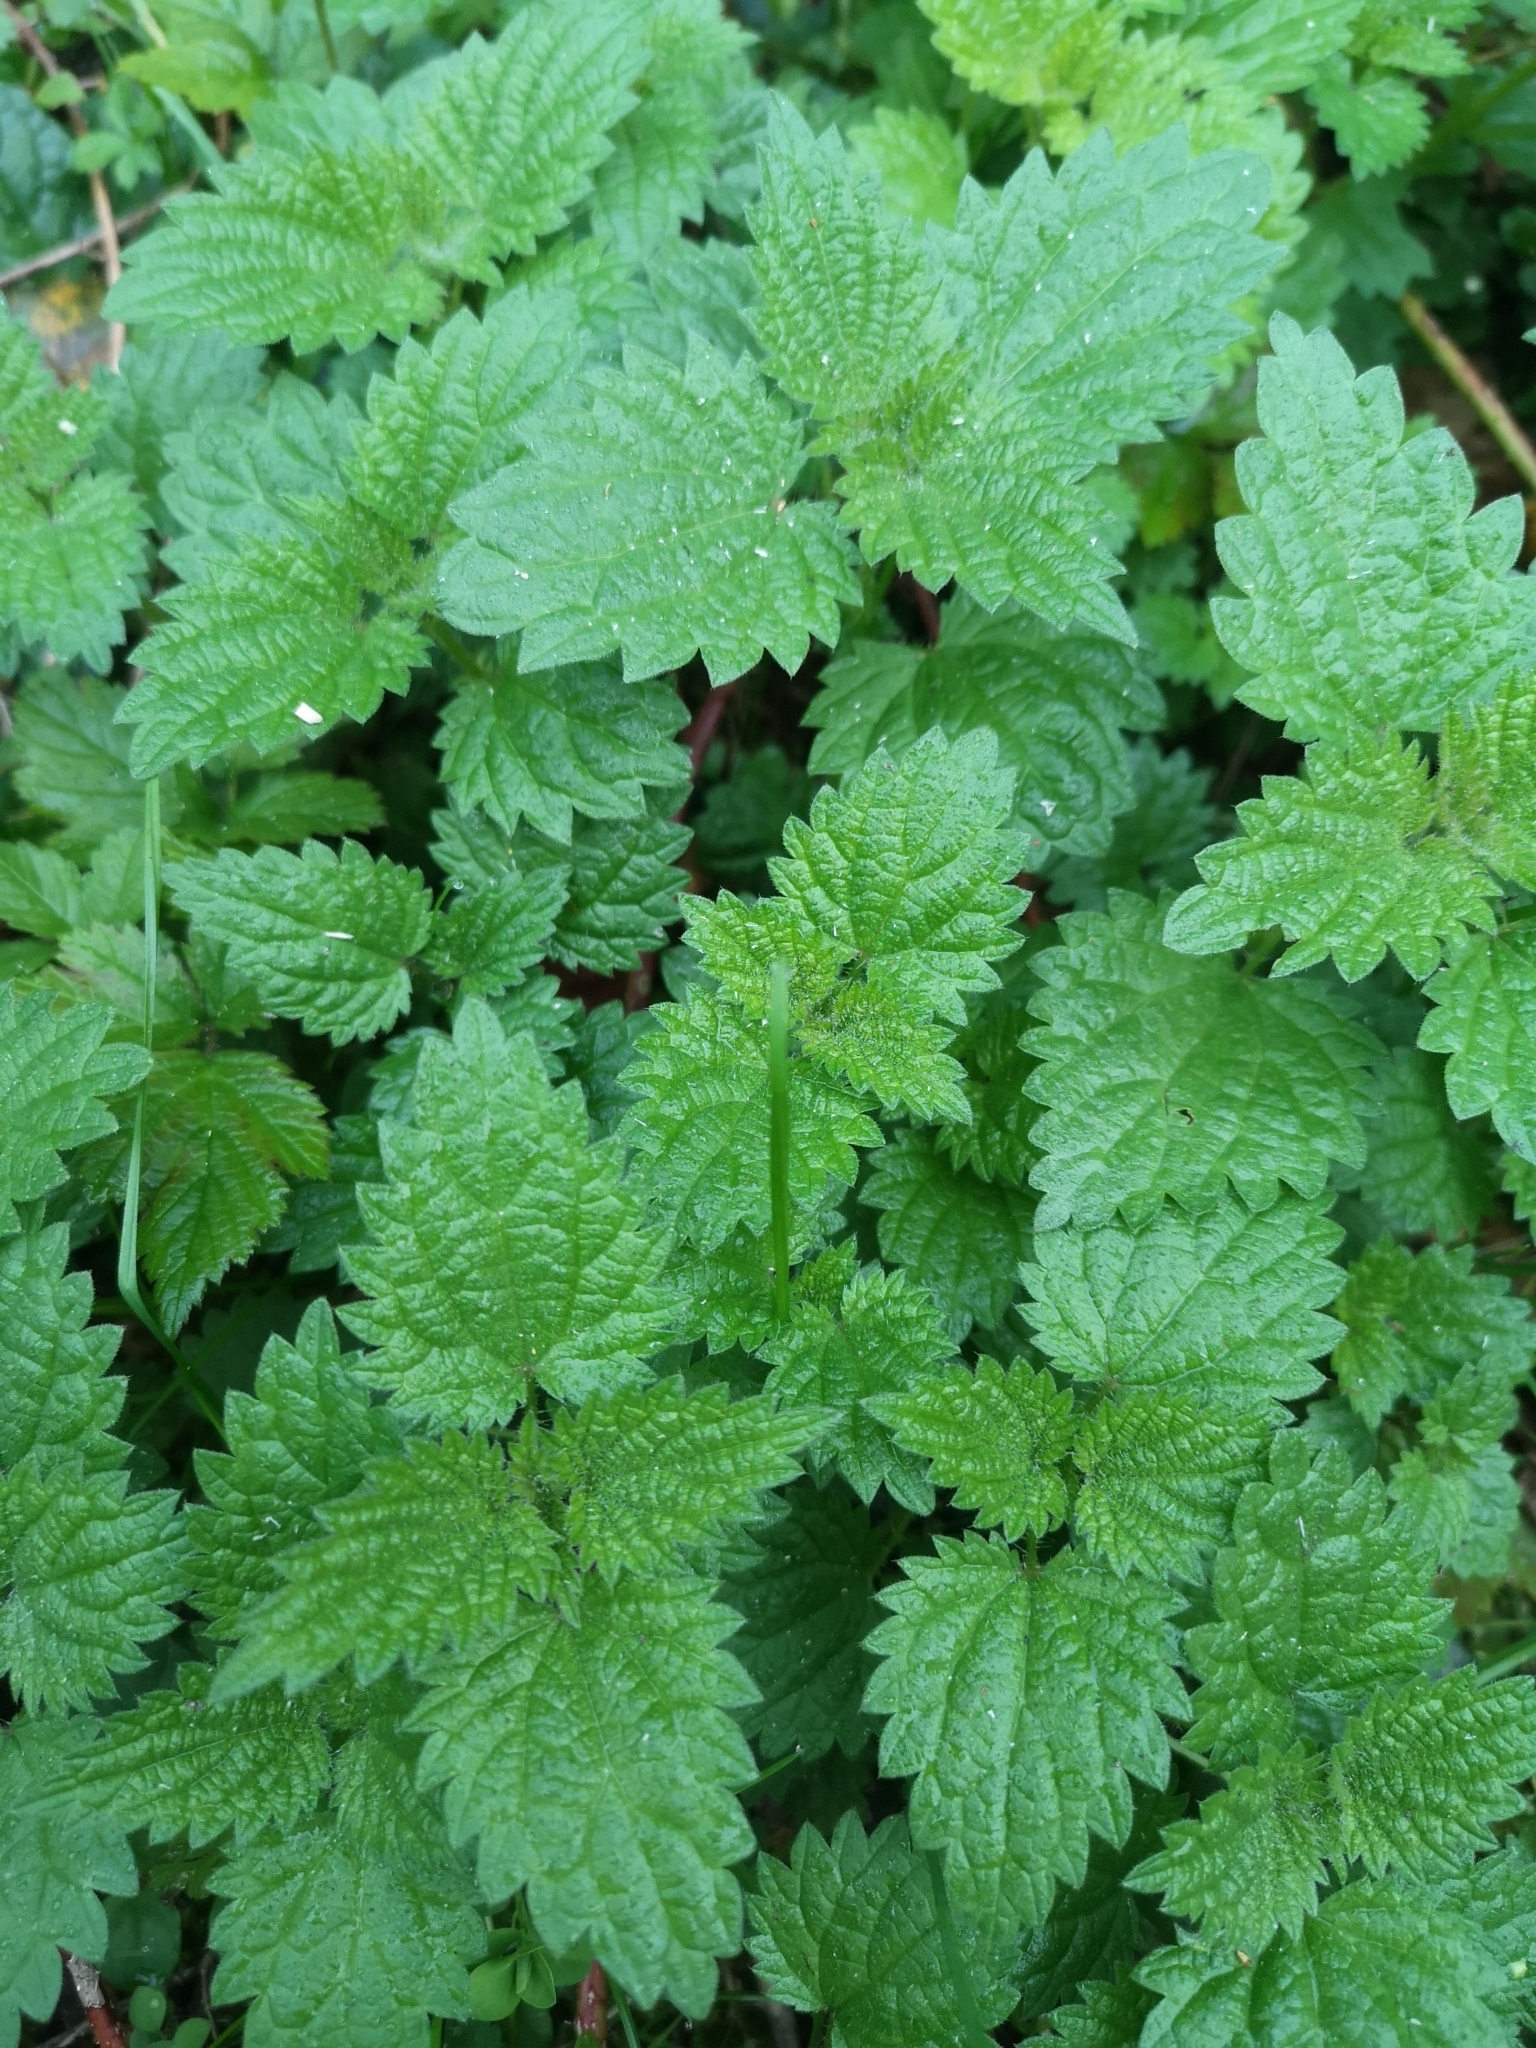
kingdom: Plantae
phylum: Tracheophyta
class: Magnoliopsida
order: Rosales
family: Urticaceae
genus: Urtica
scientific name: Urtica dioica
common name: Common nettle
